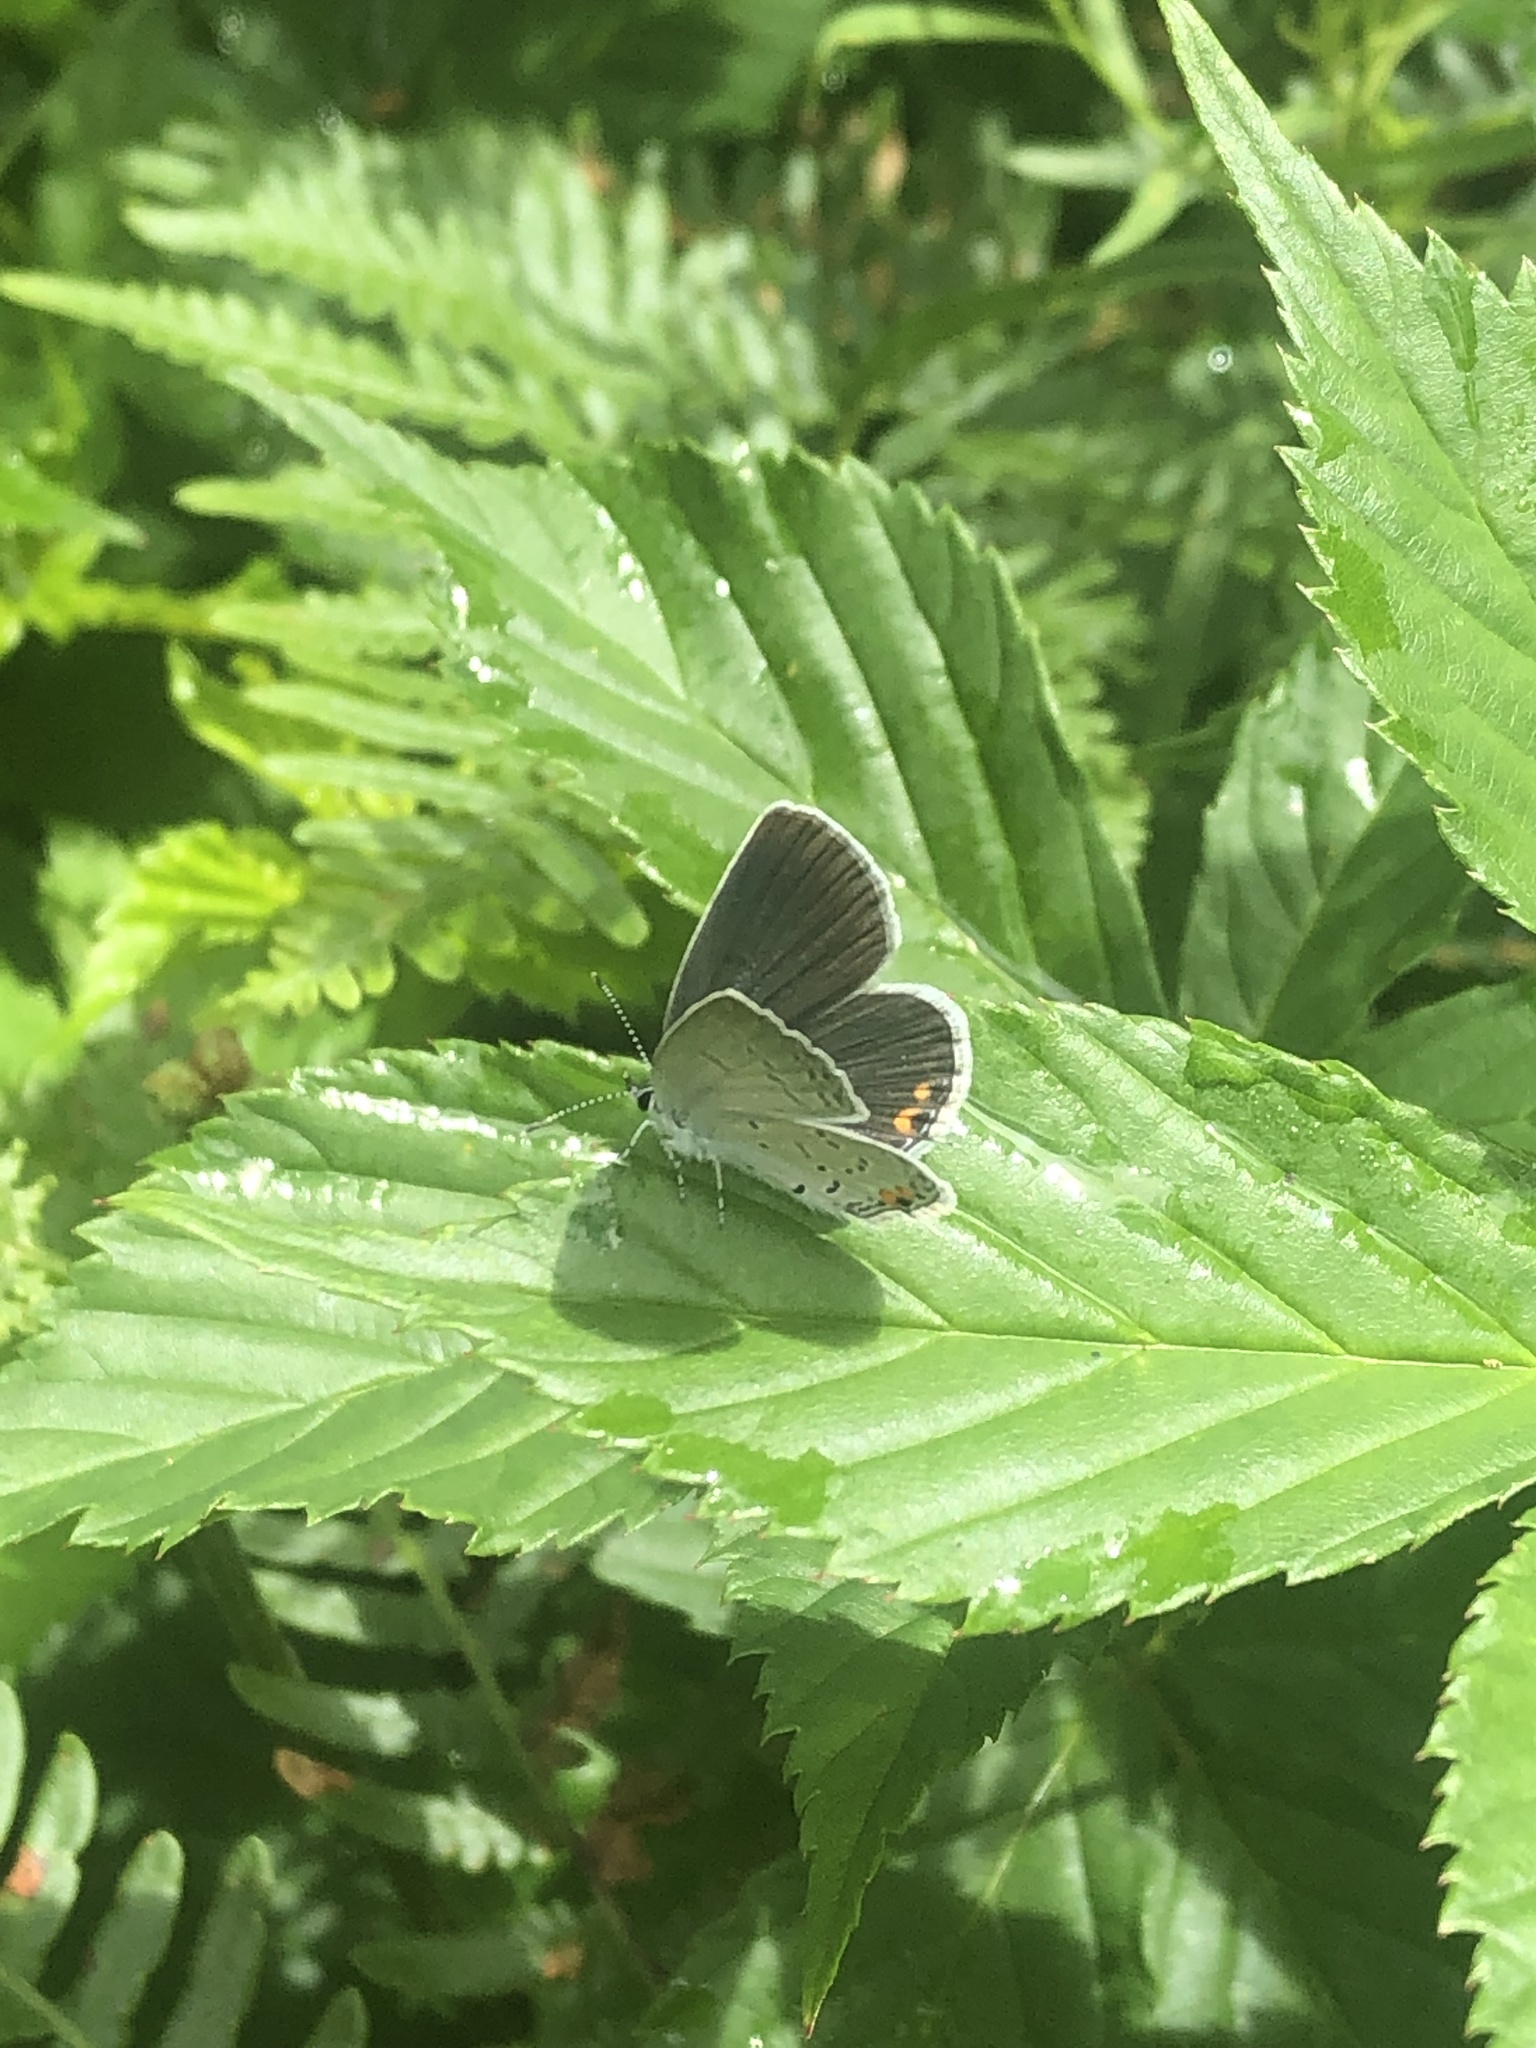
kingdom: Animalia
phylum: Arthropoda
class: Insecta
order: Lepidoptera
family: Lycaenidae
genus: Elkalyce
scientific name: Elkalyce comyntas
